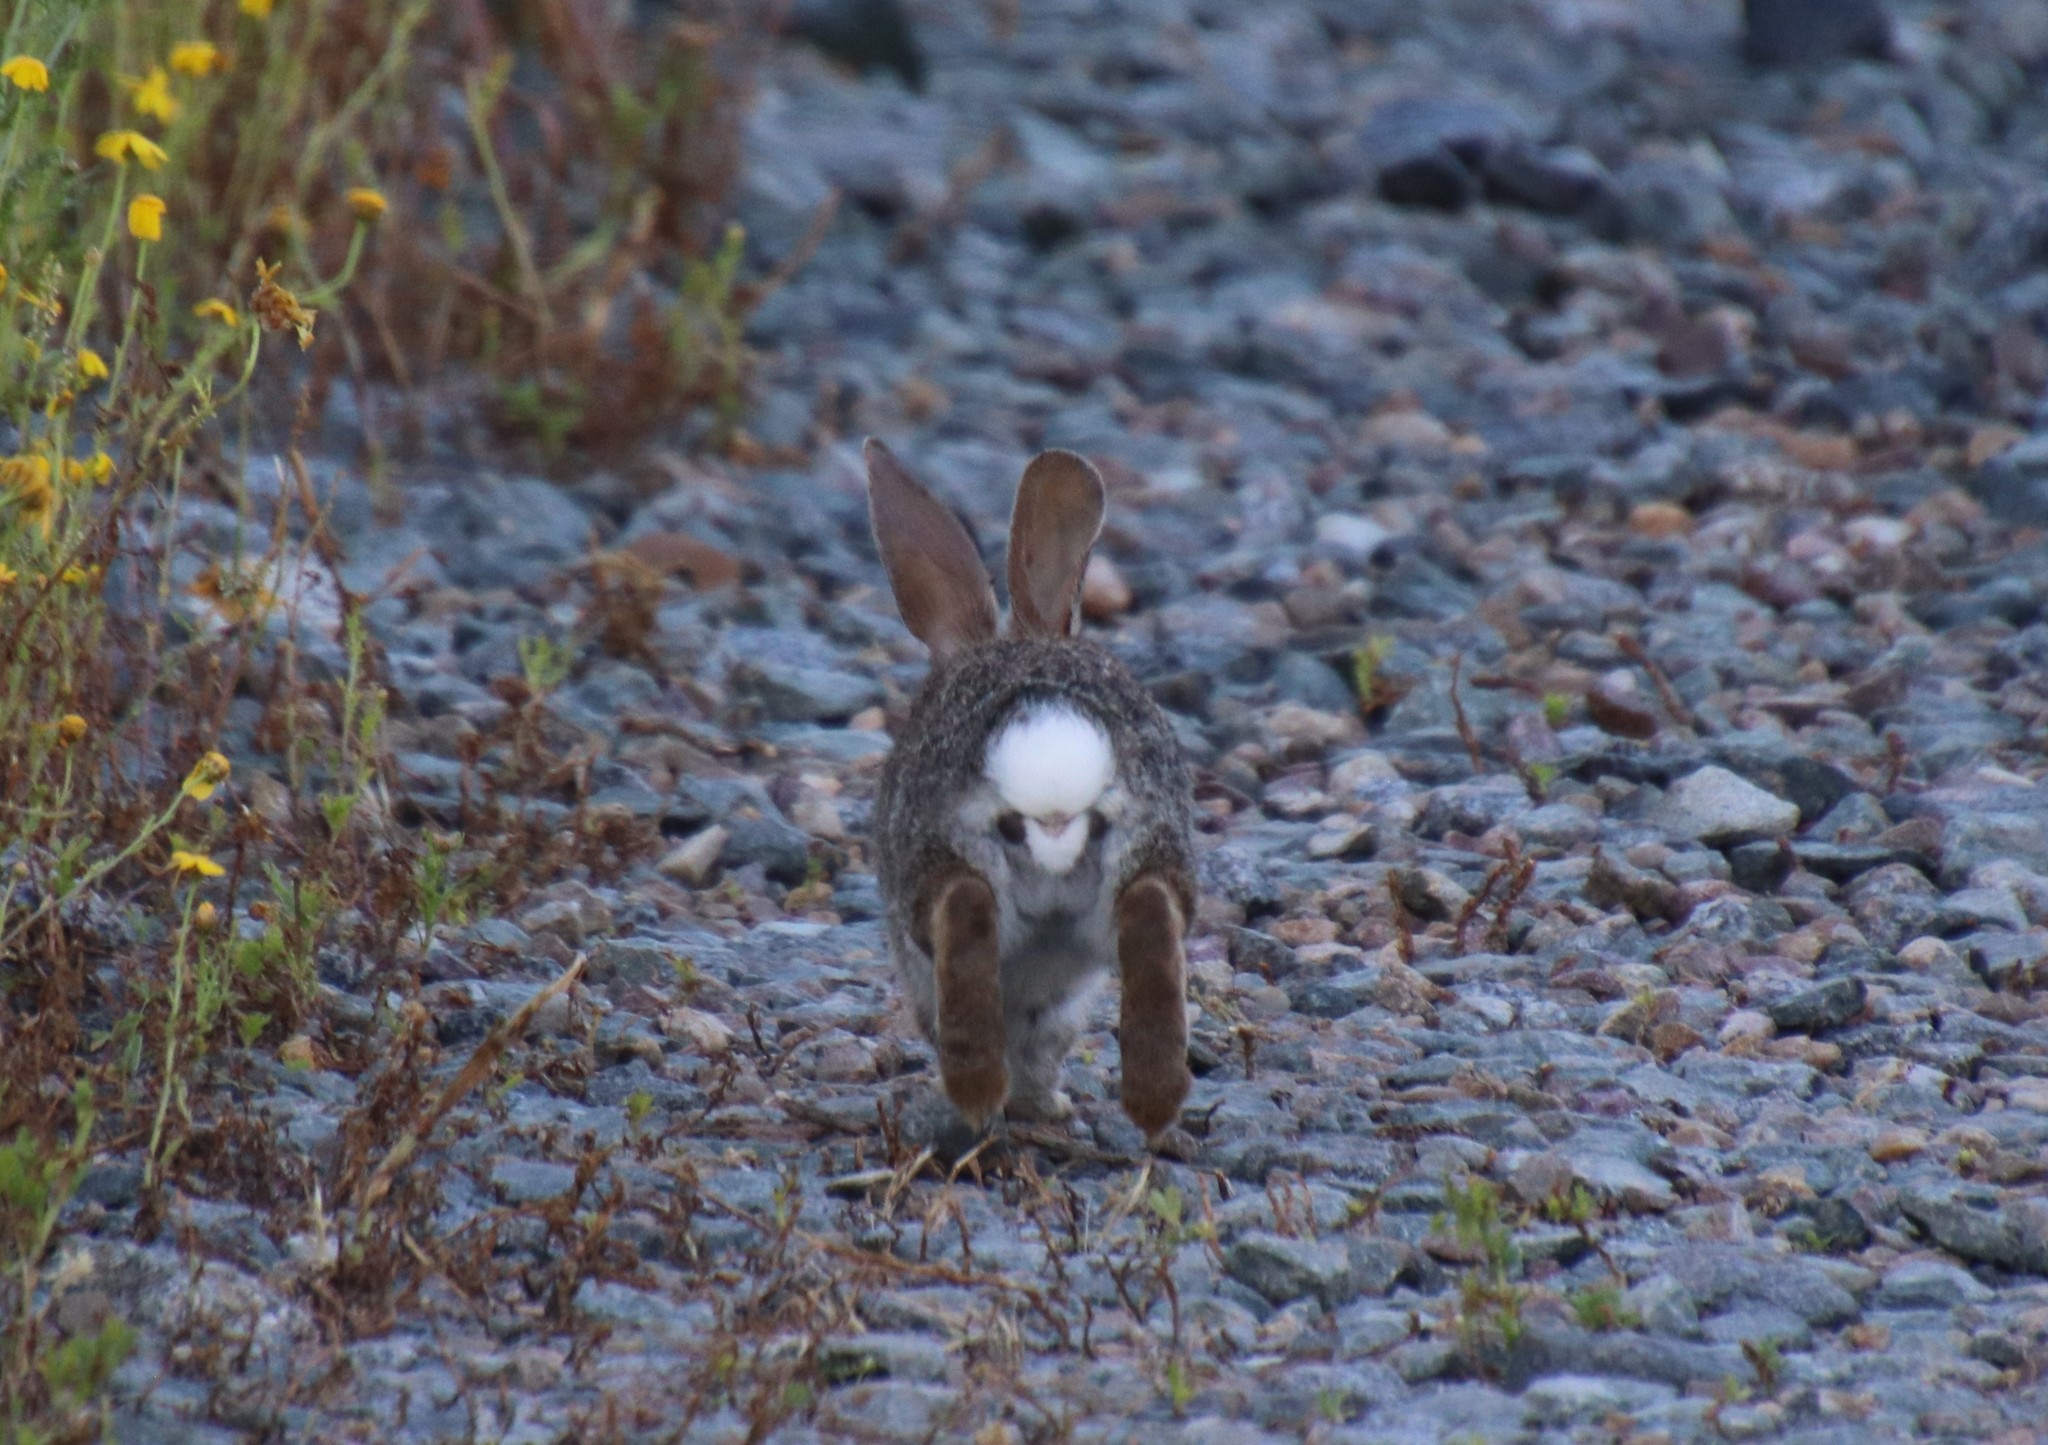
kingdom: Animalia
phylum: Chordata
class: Mammalia
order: Lagomorpha
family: Leporidae
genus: Sylvilagus
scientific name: Sylvilagus audubonii
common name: Desert cottontail
